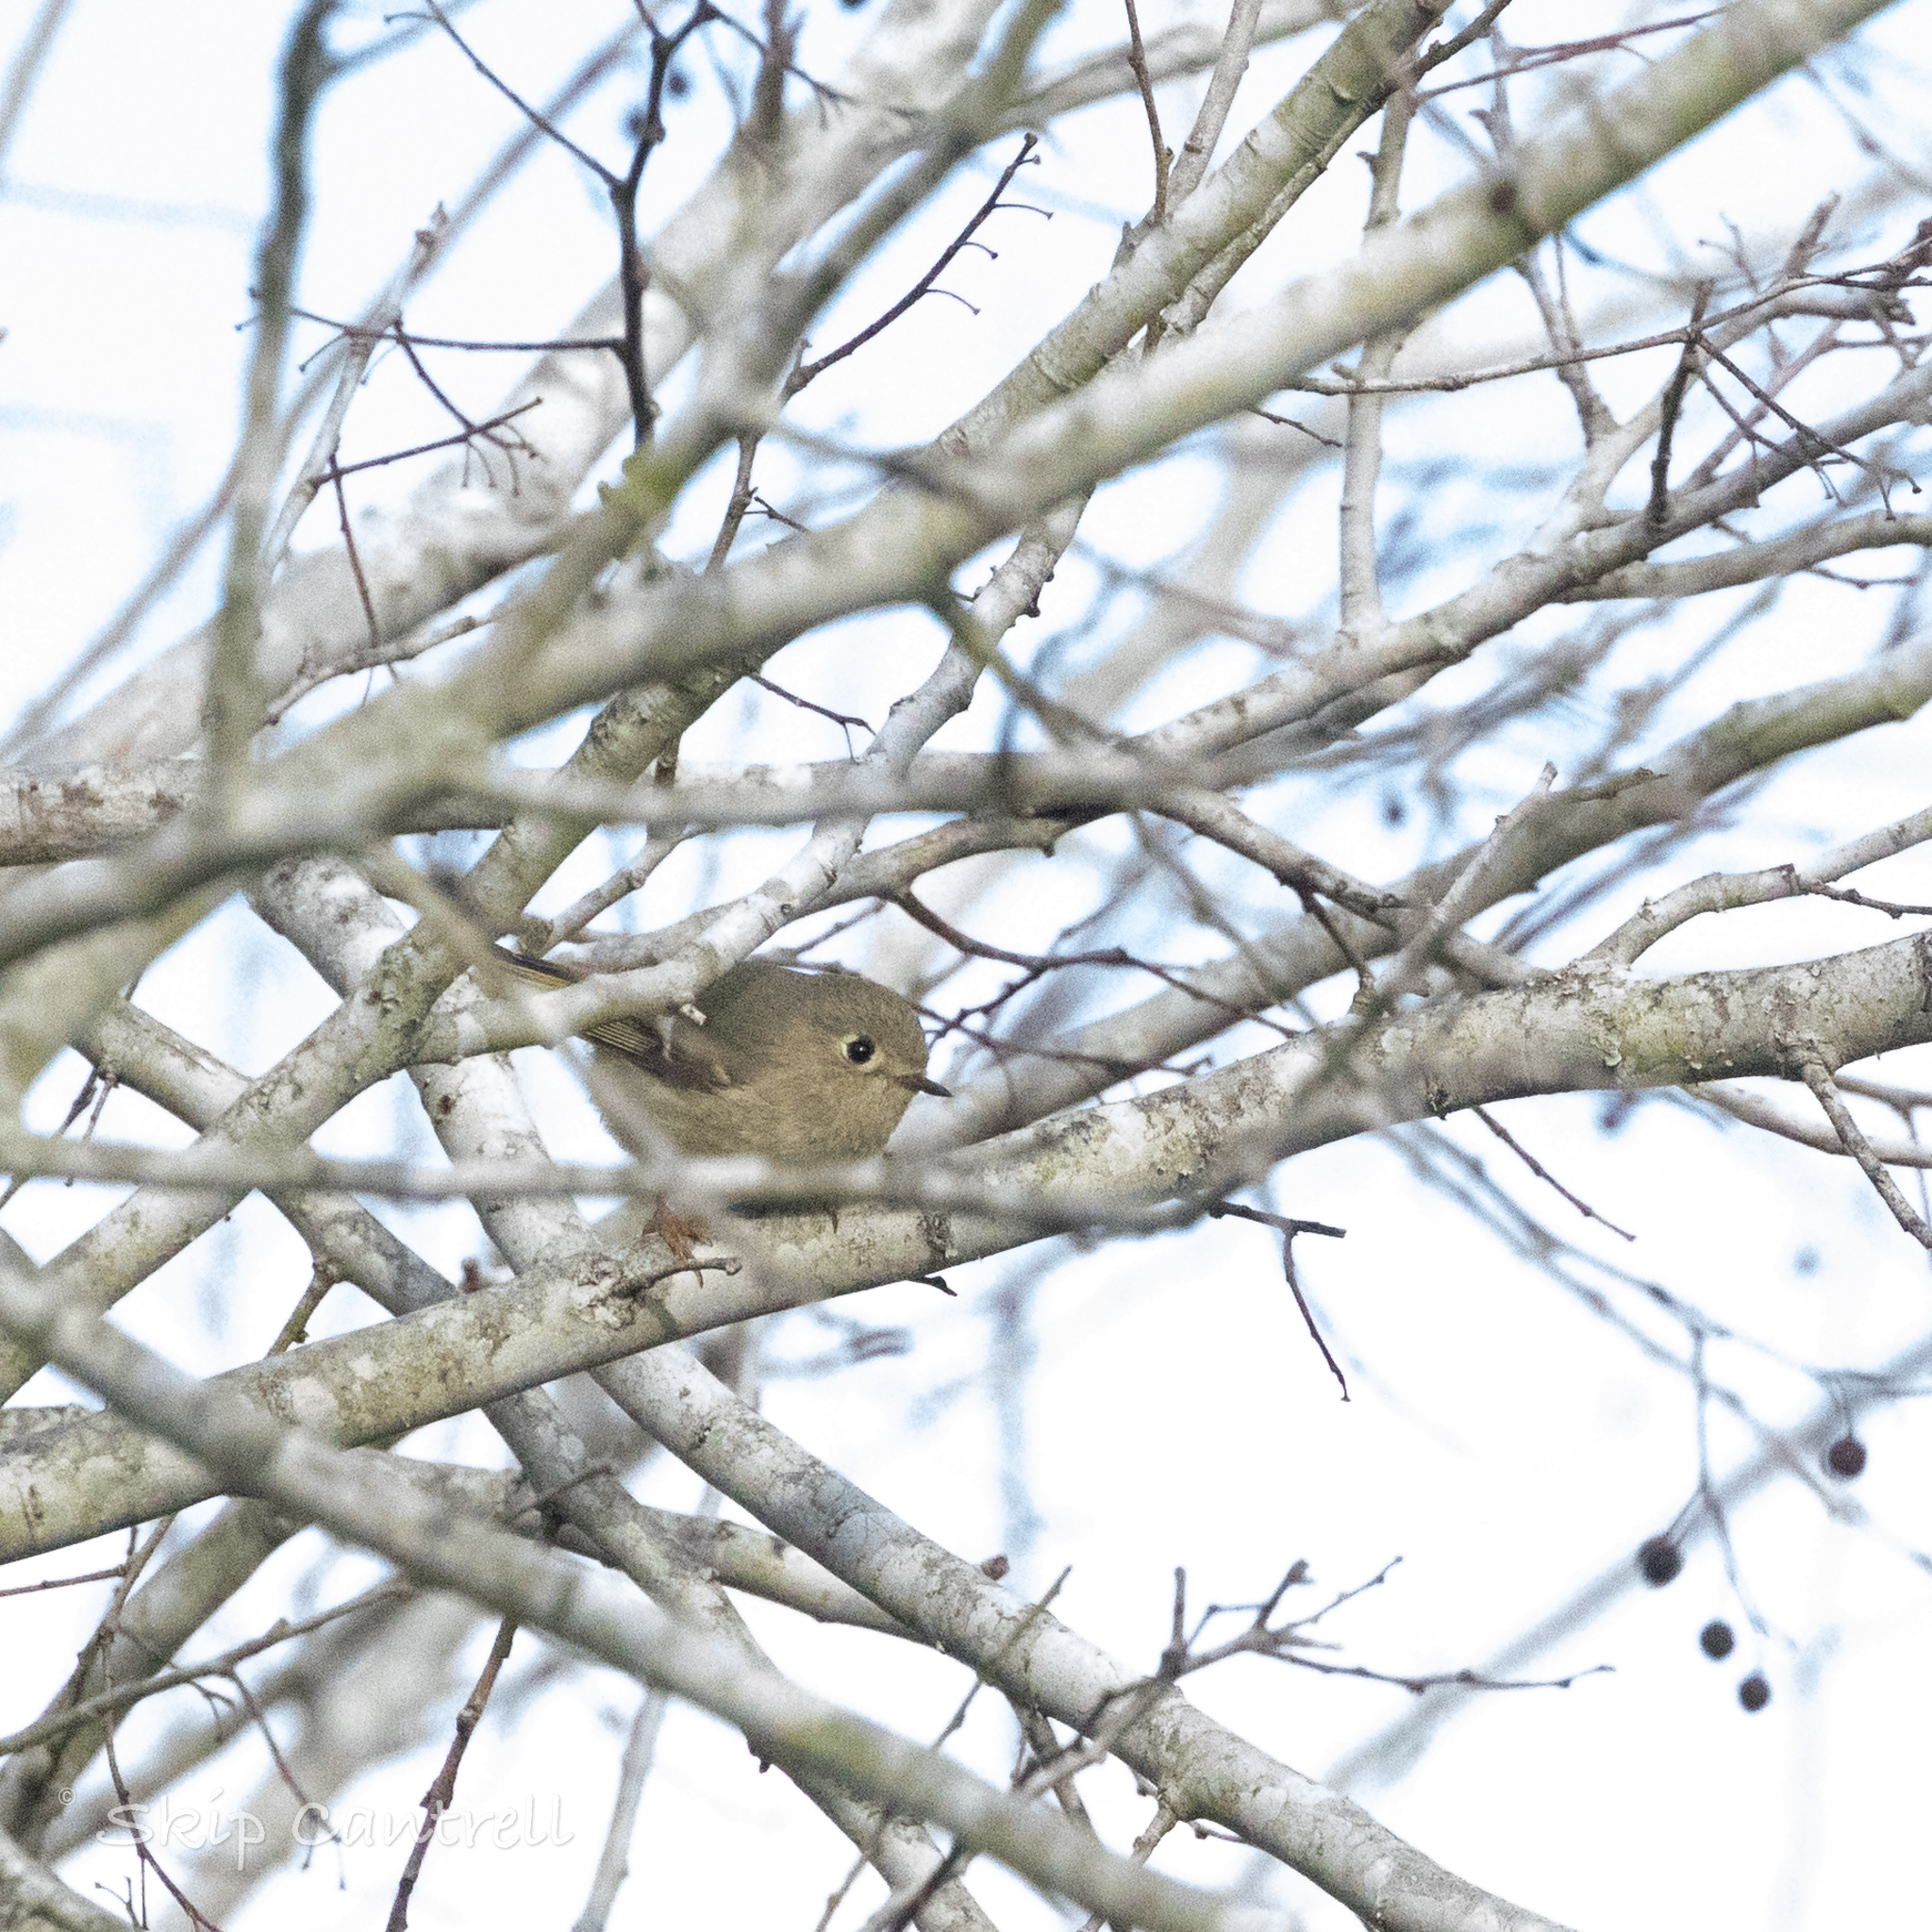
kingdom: Animalia
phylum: Chordata
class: Aves
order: Passeriformes
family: Regulidae
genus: Regulus
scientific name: Regulus calendula
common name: Ruby-crowned kinglet
